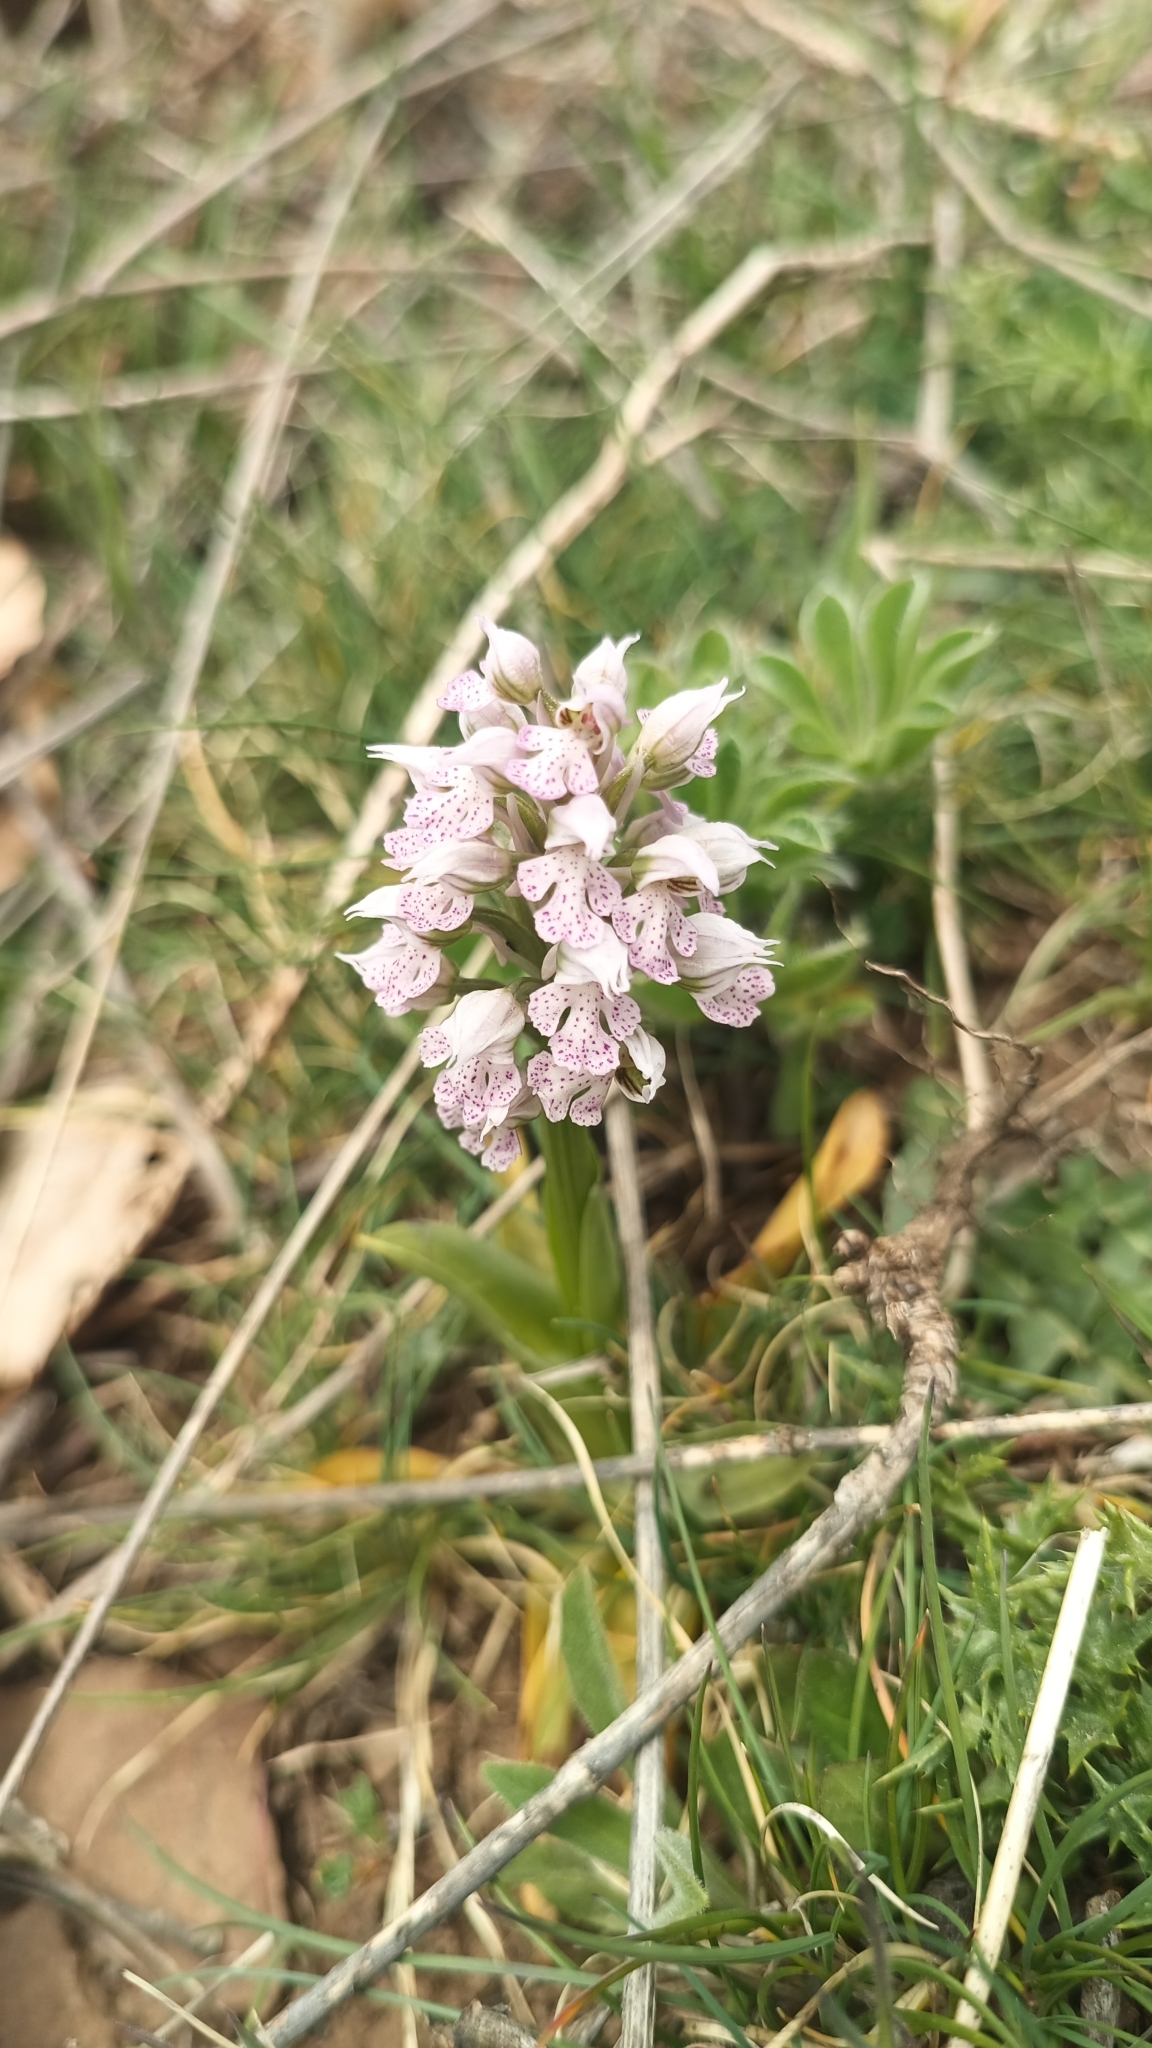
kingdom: Plantae
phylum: Tracheophyta
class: Liliopsida
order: Asparagales
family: Orchidaceae
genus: Neotinea
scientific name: Neotinea lactea
